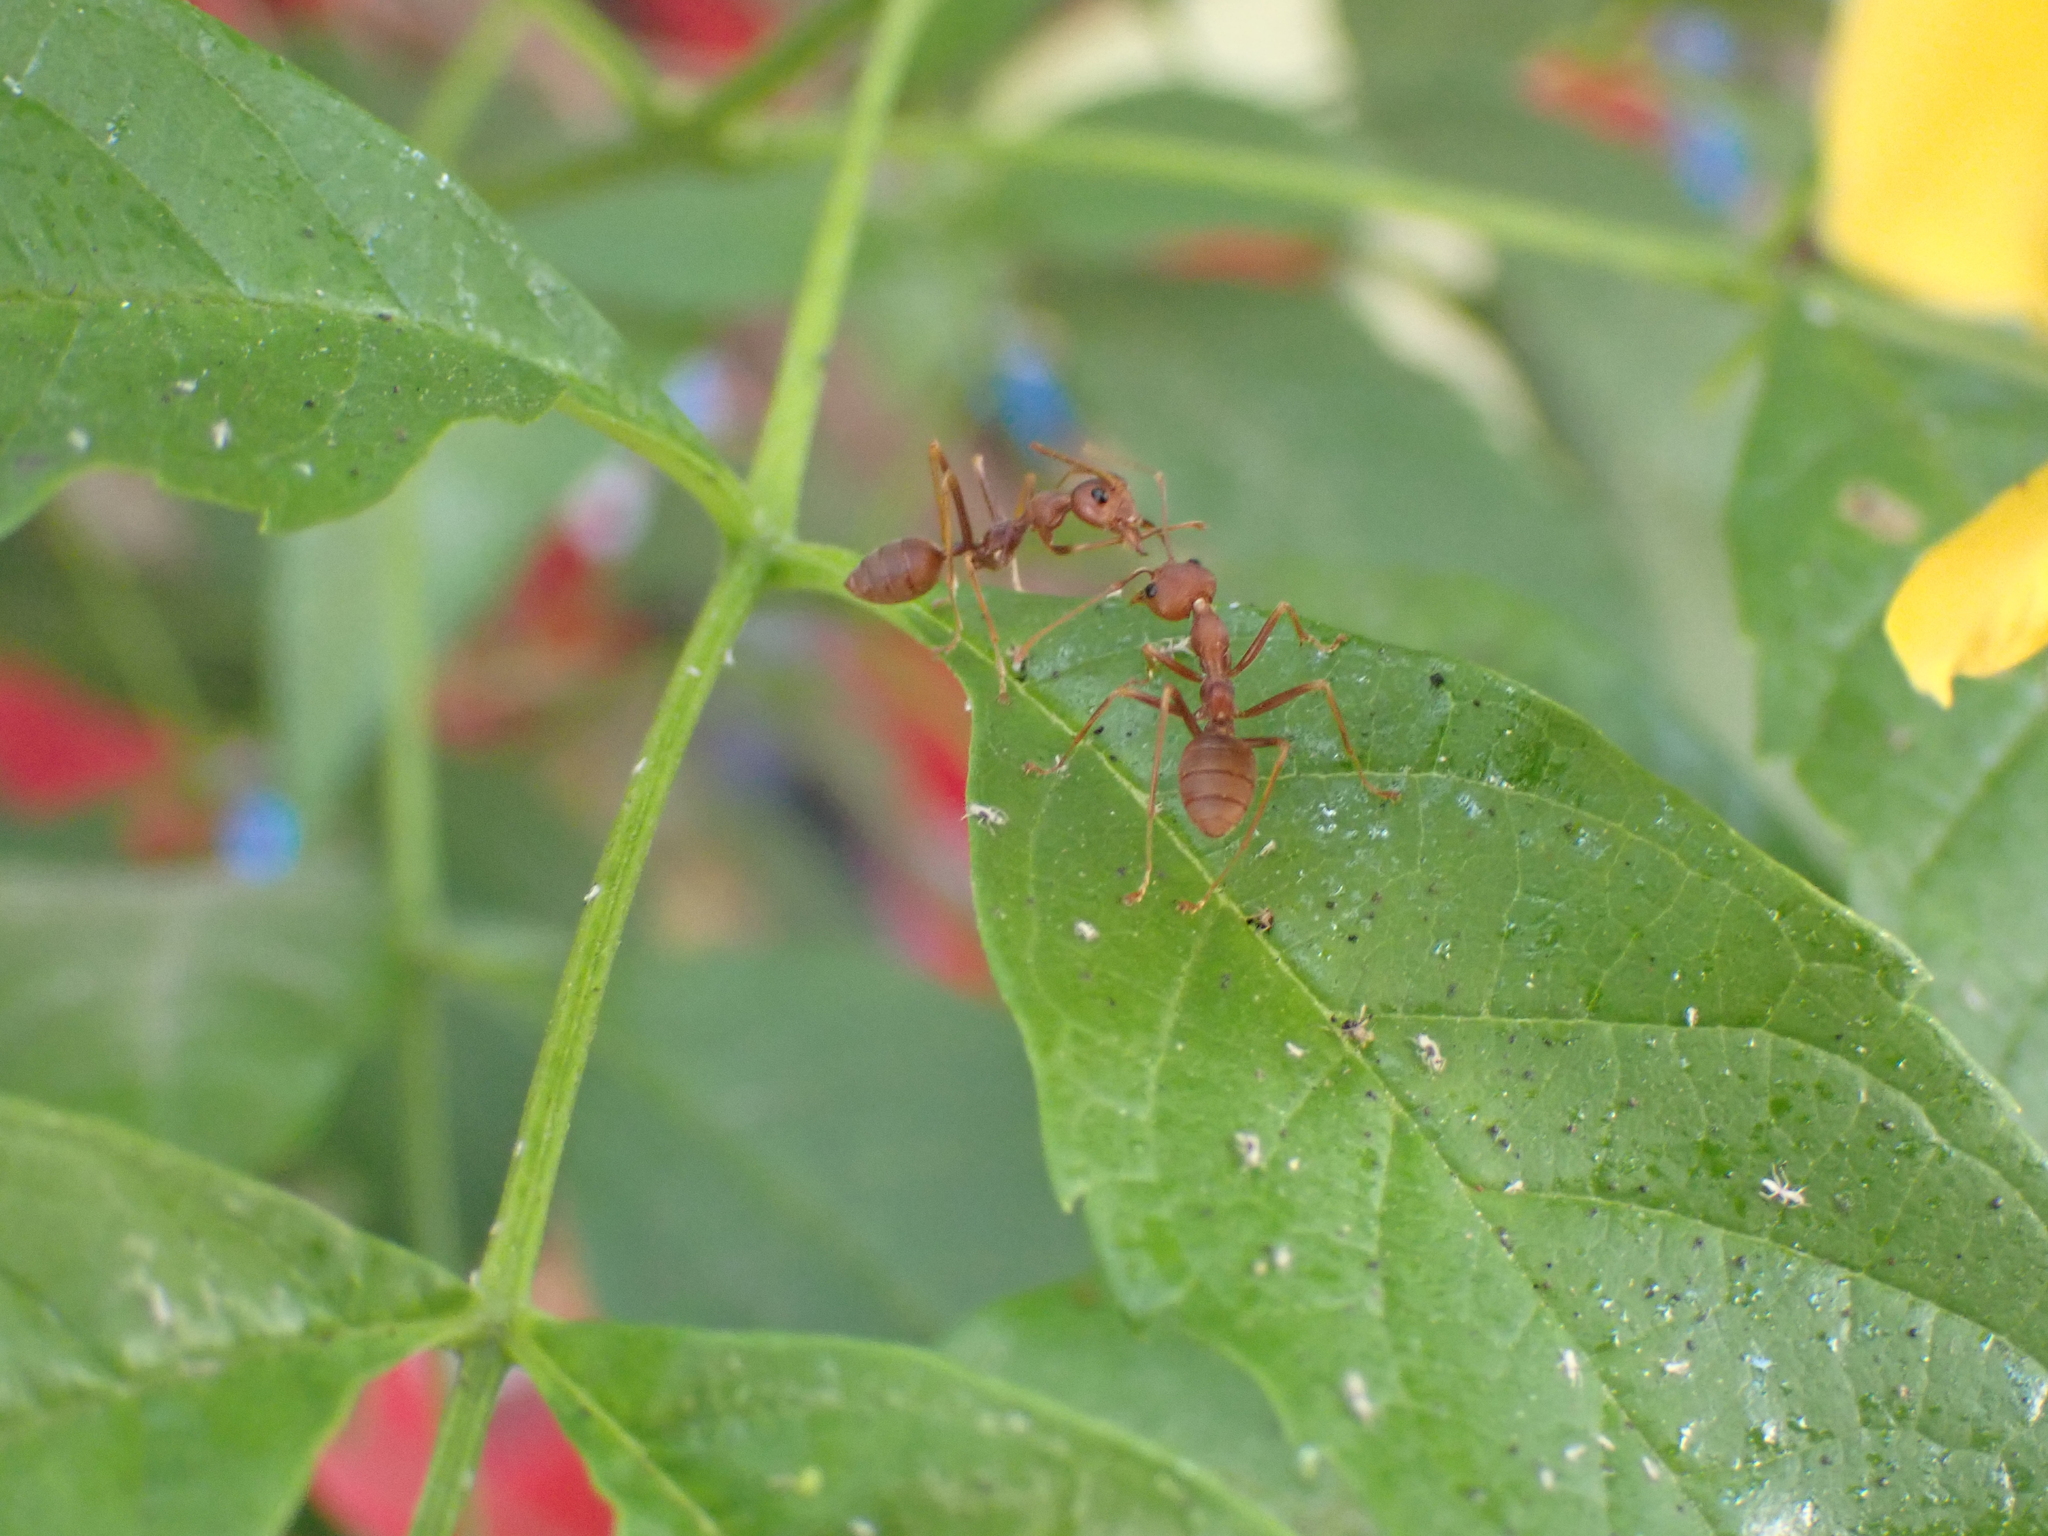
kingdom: Animalia
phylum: Arthropoda
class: Insecta
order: Hymenoptera
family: Formicidae
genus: Oecophylla
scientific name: Oecophylla smaragdina
